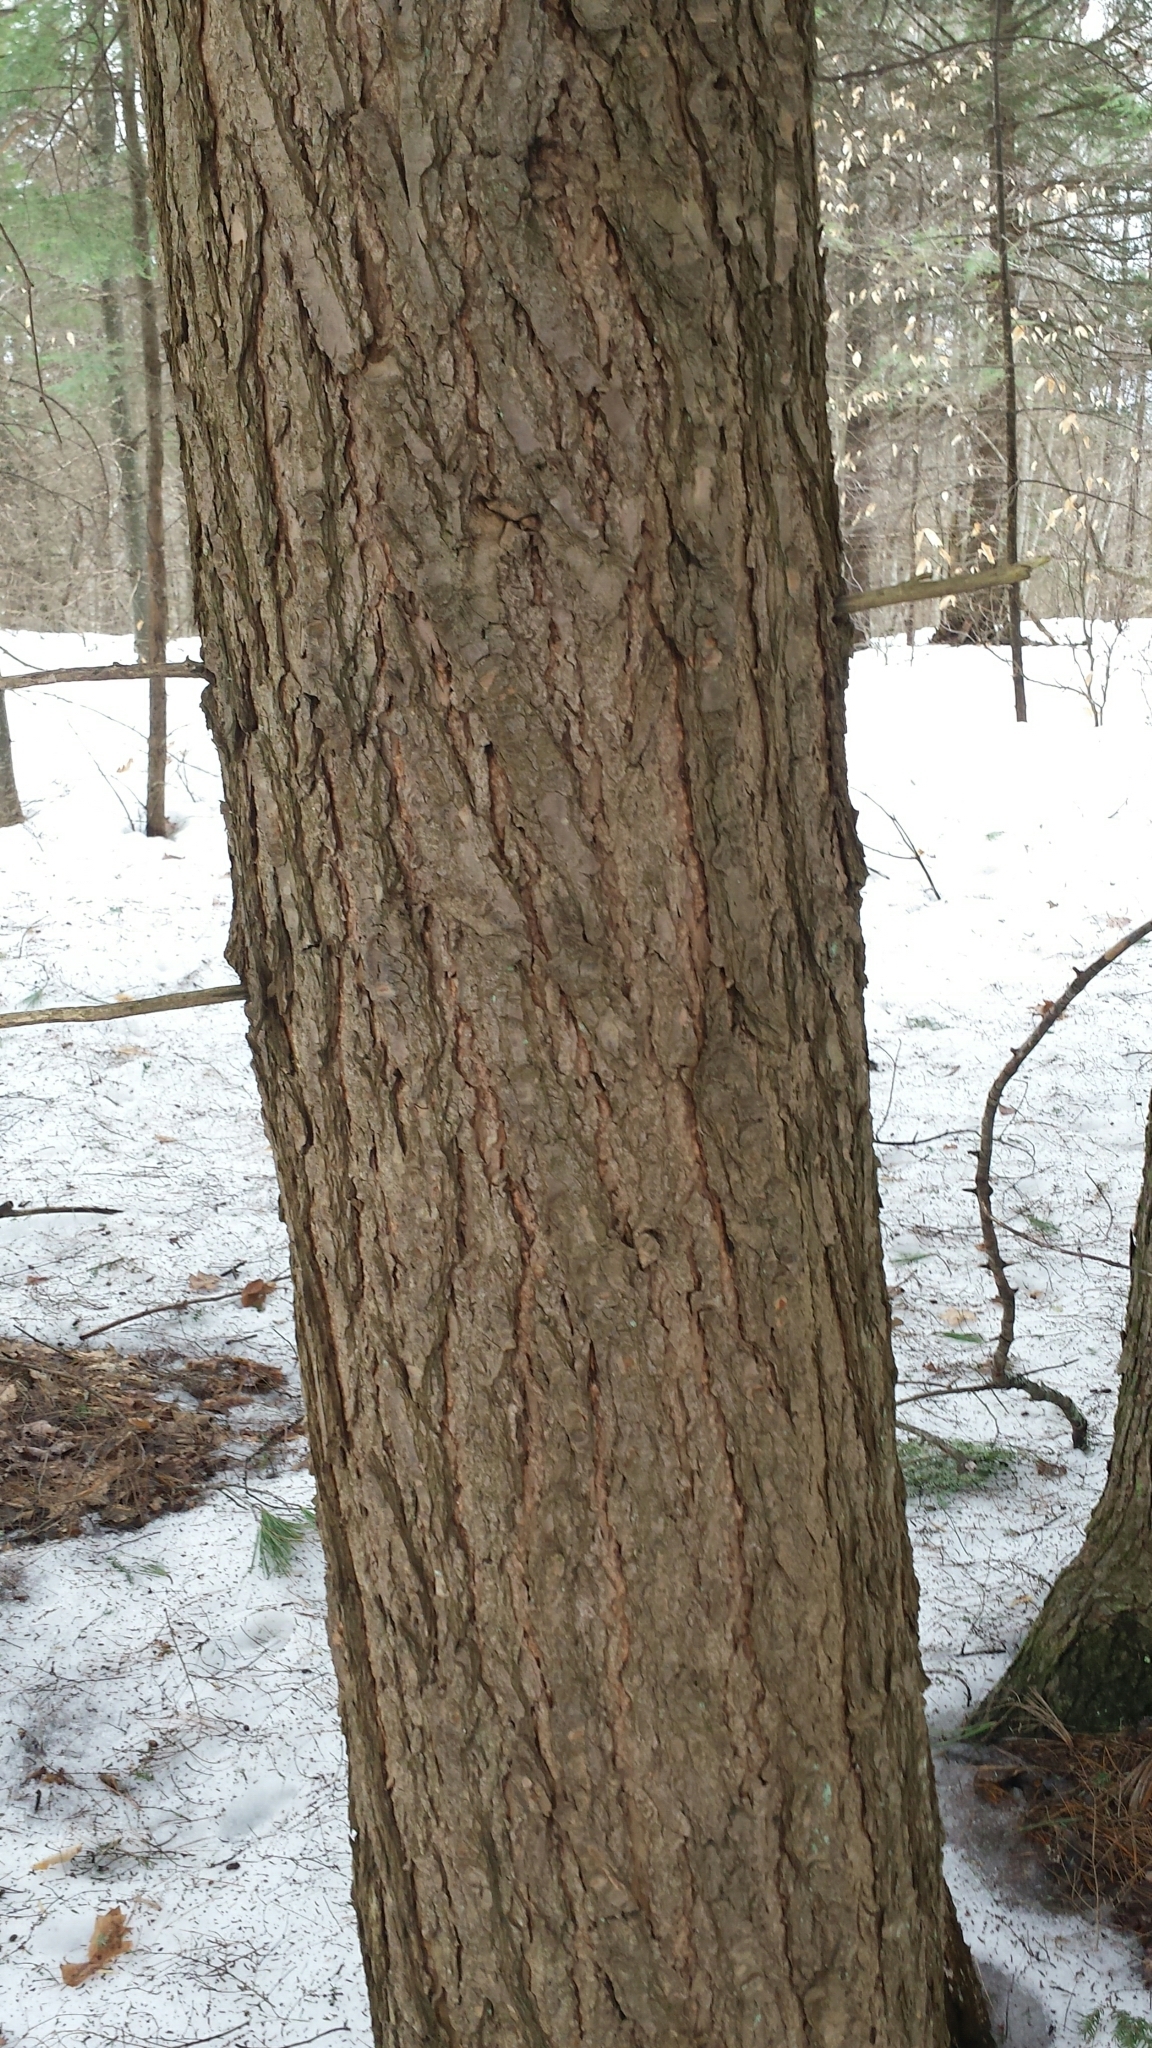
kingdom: Plantae
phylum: Tracheophyta
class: Pinopsida
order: Pinales
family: Pinaceae
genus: Tsuga
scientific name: Tsuga canadensis
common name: Eastern hemlock
